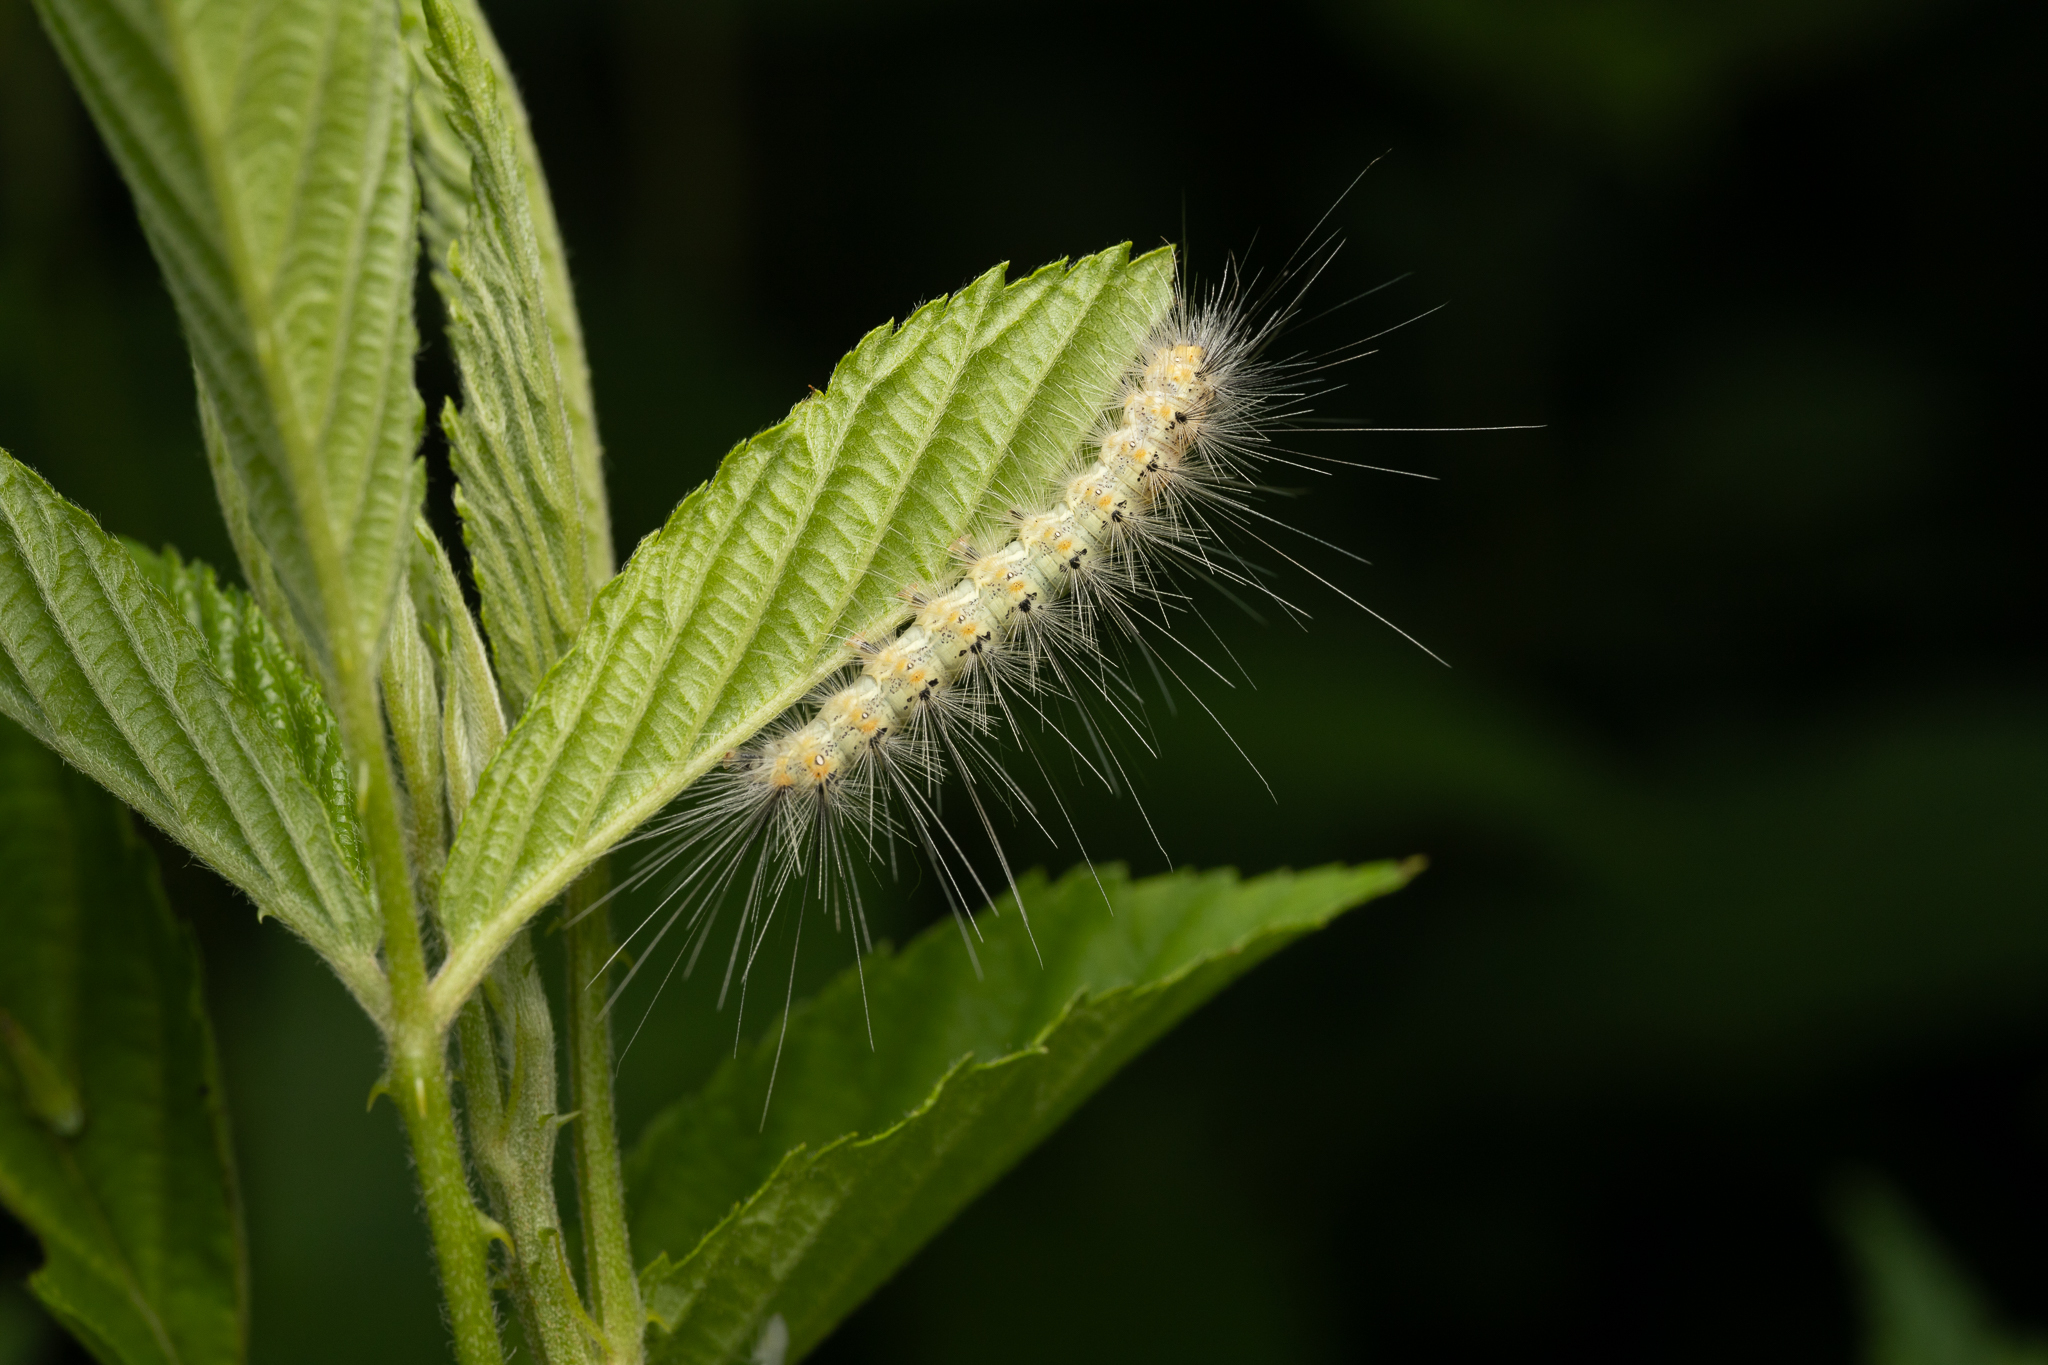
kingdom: Animalia
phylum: Arthropoda
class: Insecta
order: Lepidoptera
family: Erebidae
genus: Hyphantria
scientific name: Hyphantria cunea
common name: American white moth
